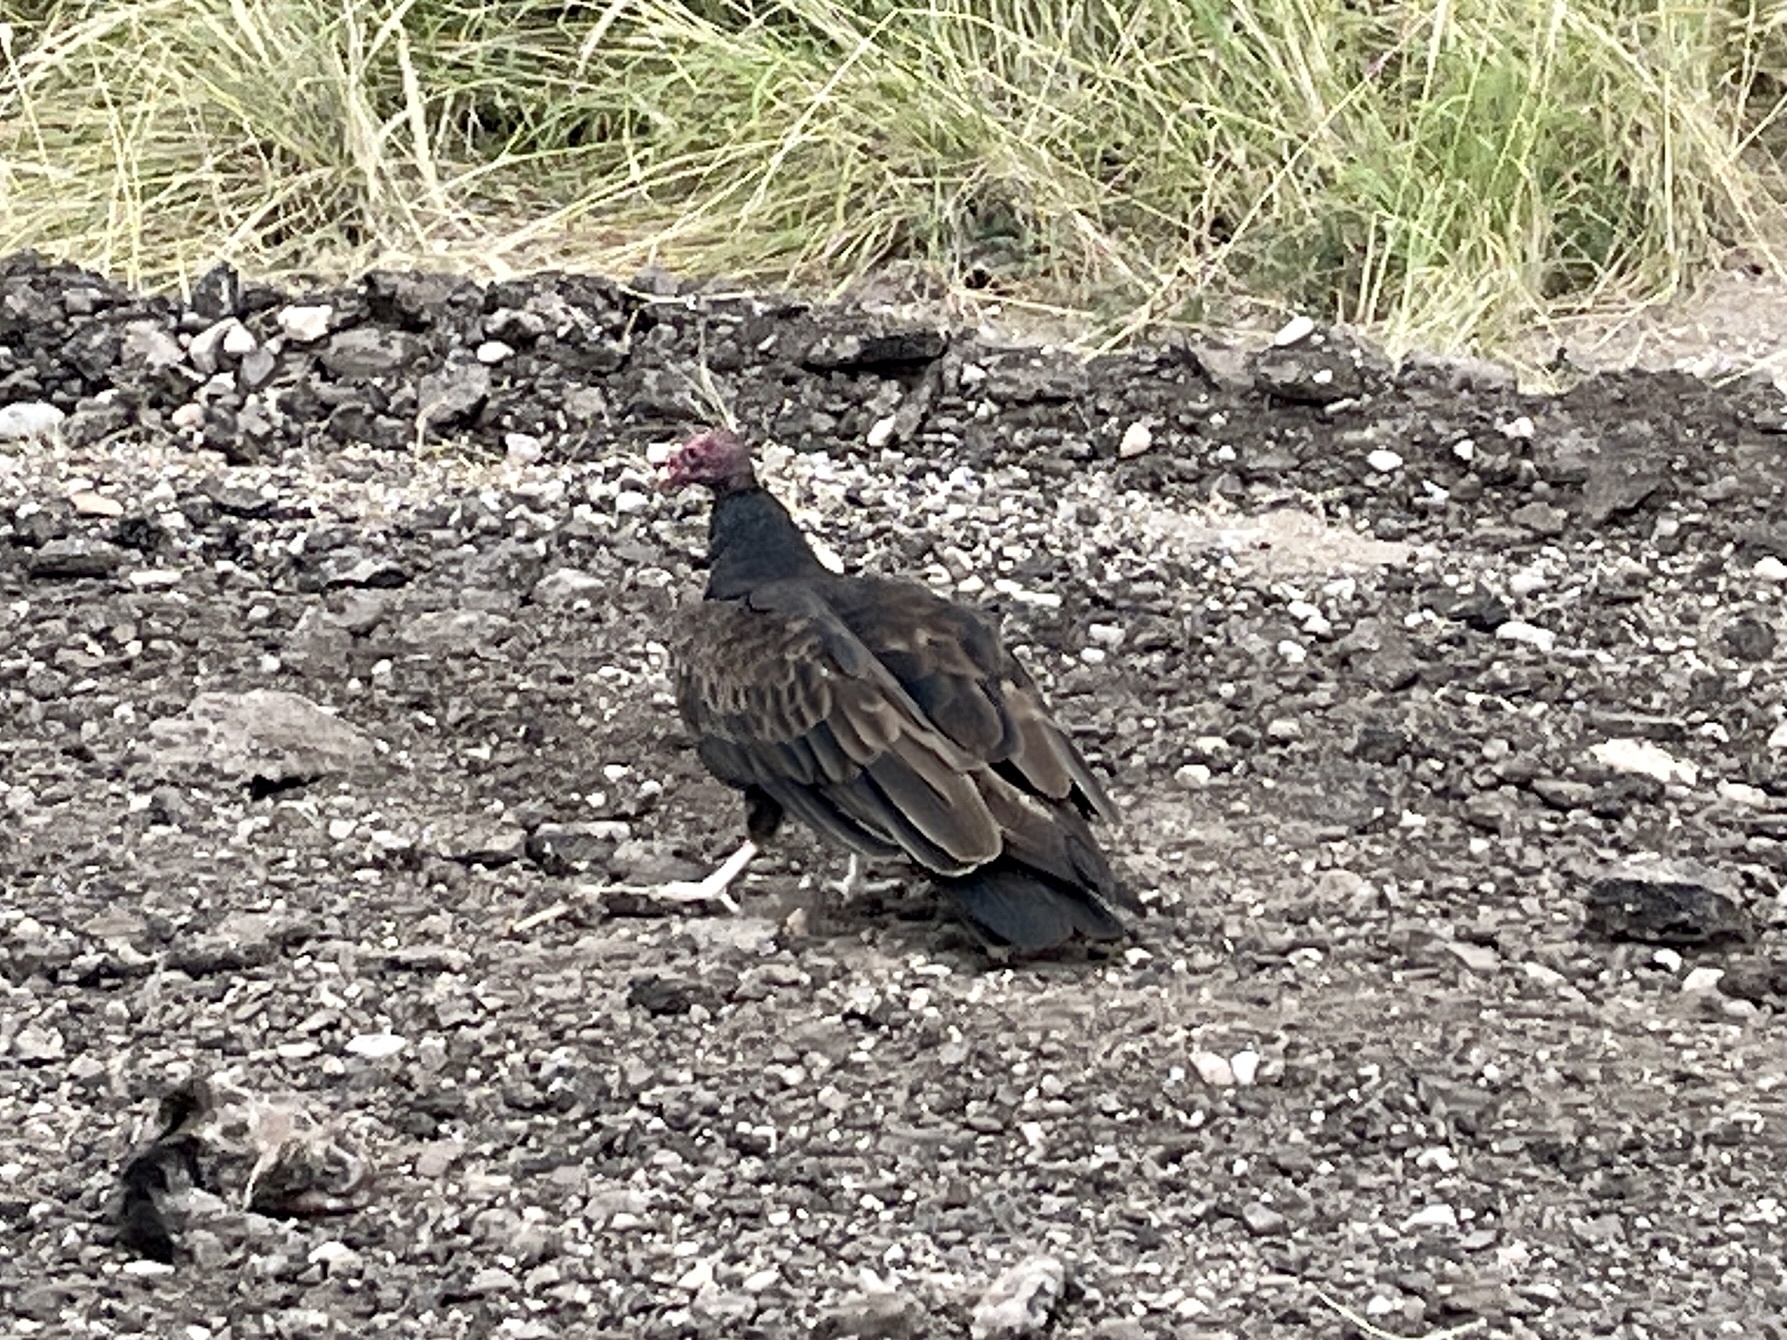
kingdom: Animalia
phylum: Chordata
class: Aves
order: Accipitriformes
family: Cathartidae
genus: Cathartes
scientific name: Cathartes aura
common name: Turkey vulture
